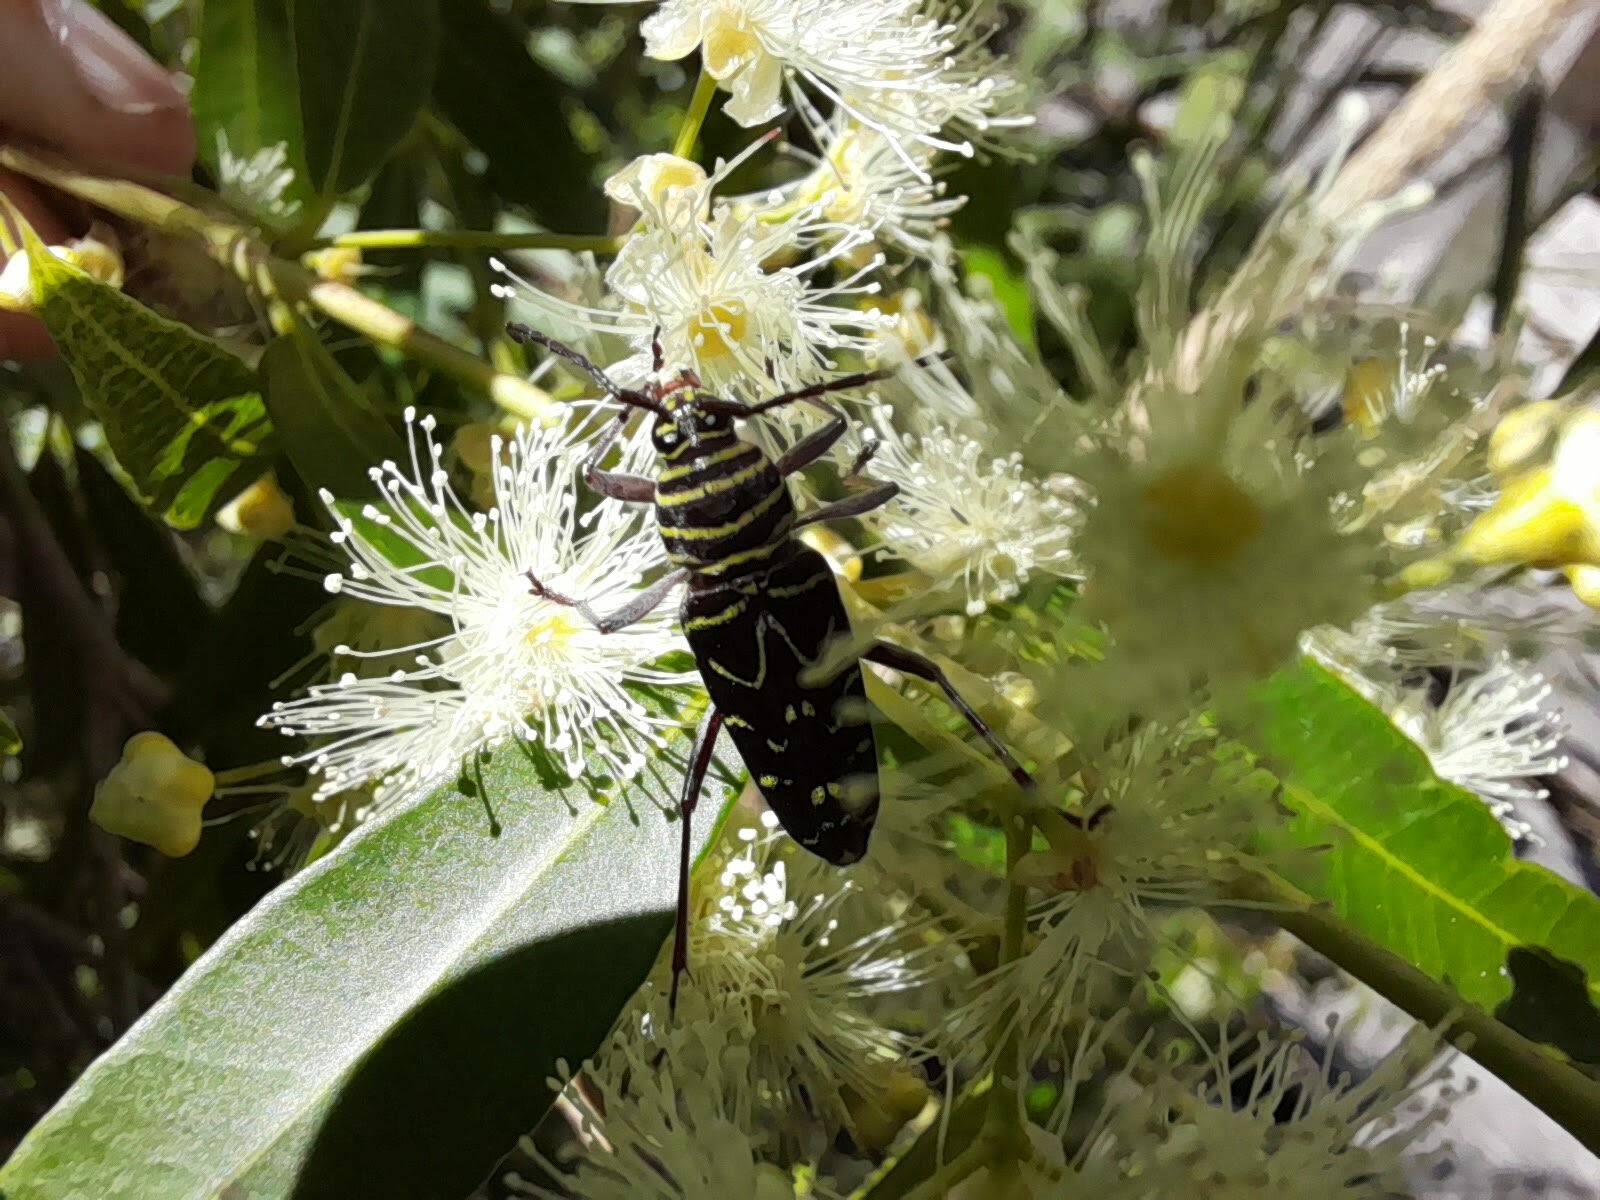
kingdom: Animalia
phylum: Arthropoda
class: Insecta
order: Coleoptera
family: Cerambycidae
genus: Megacyllene
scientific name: Megacyllene acuta
